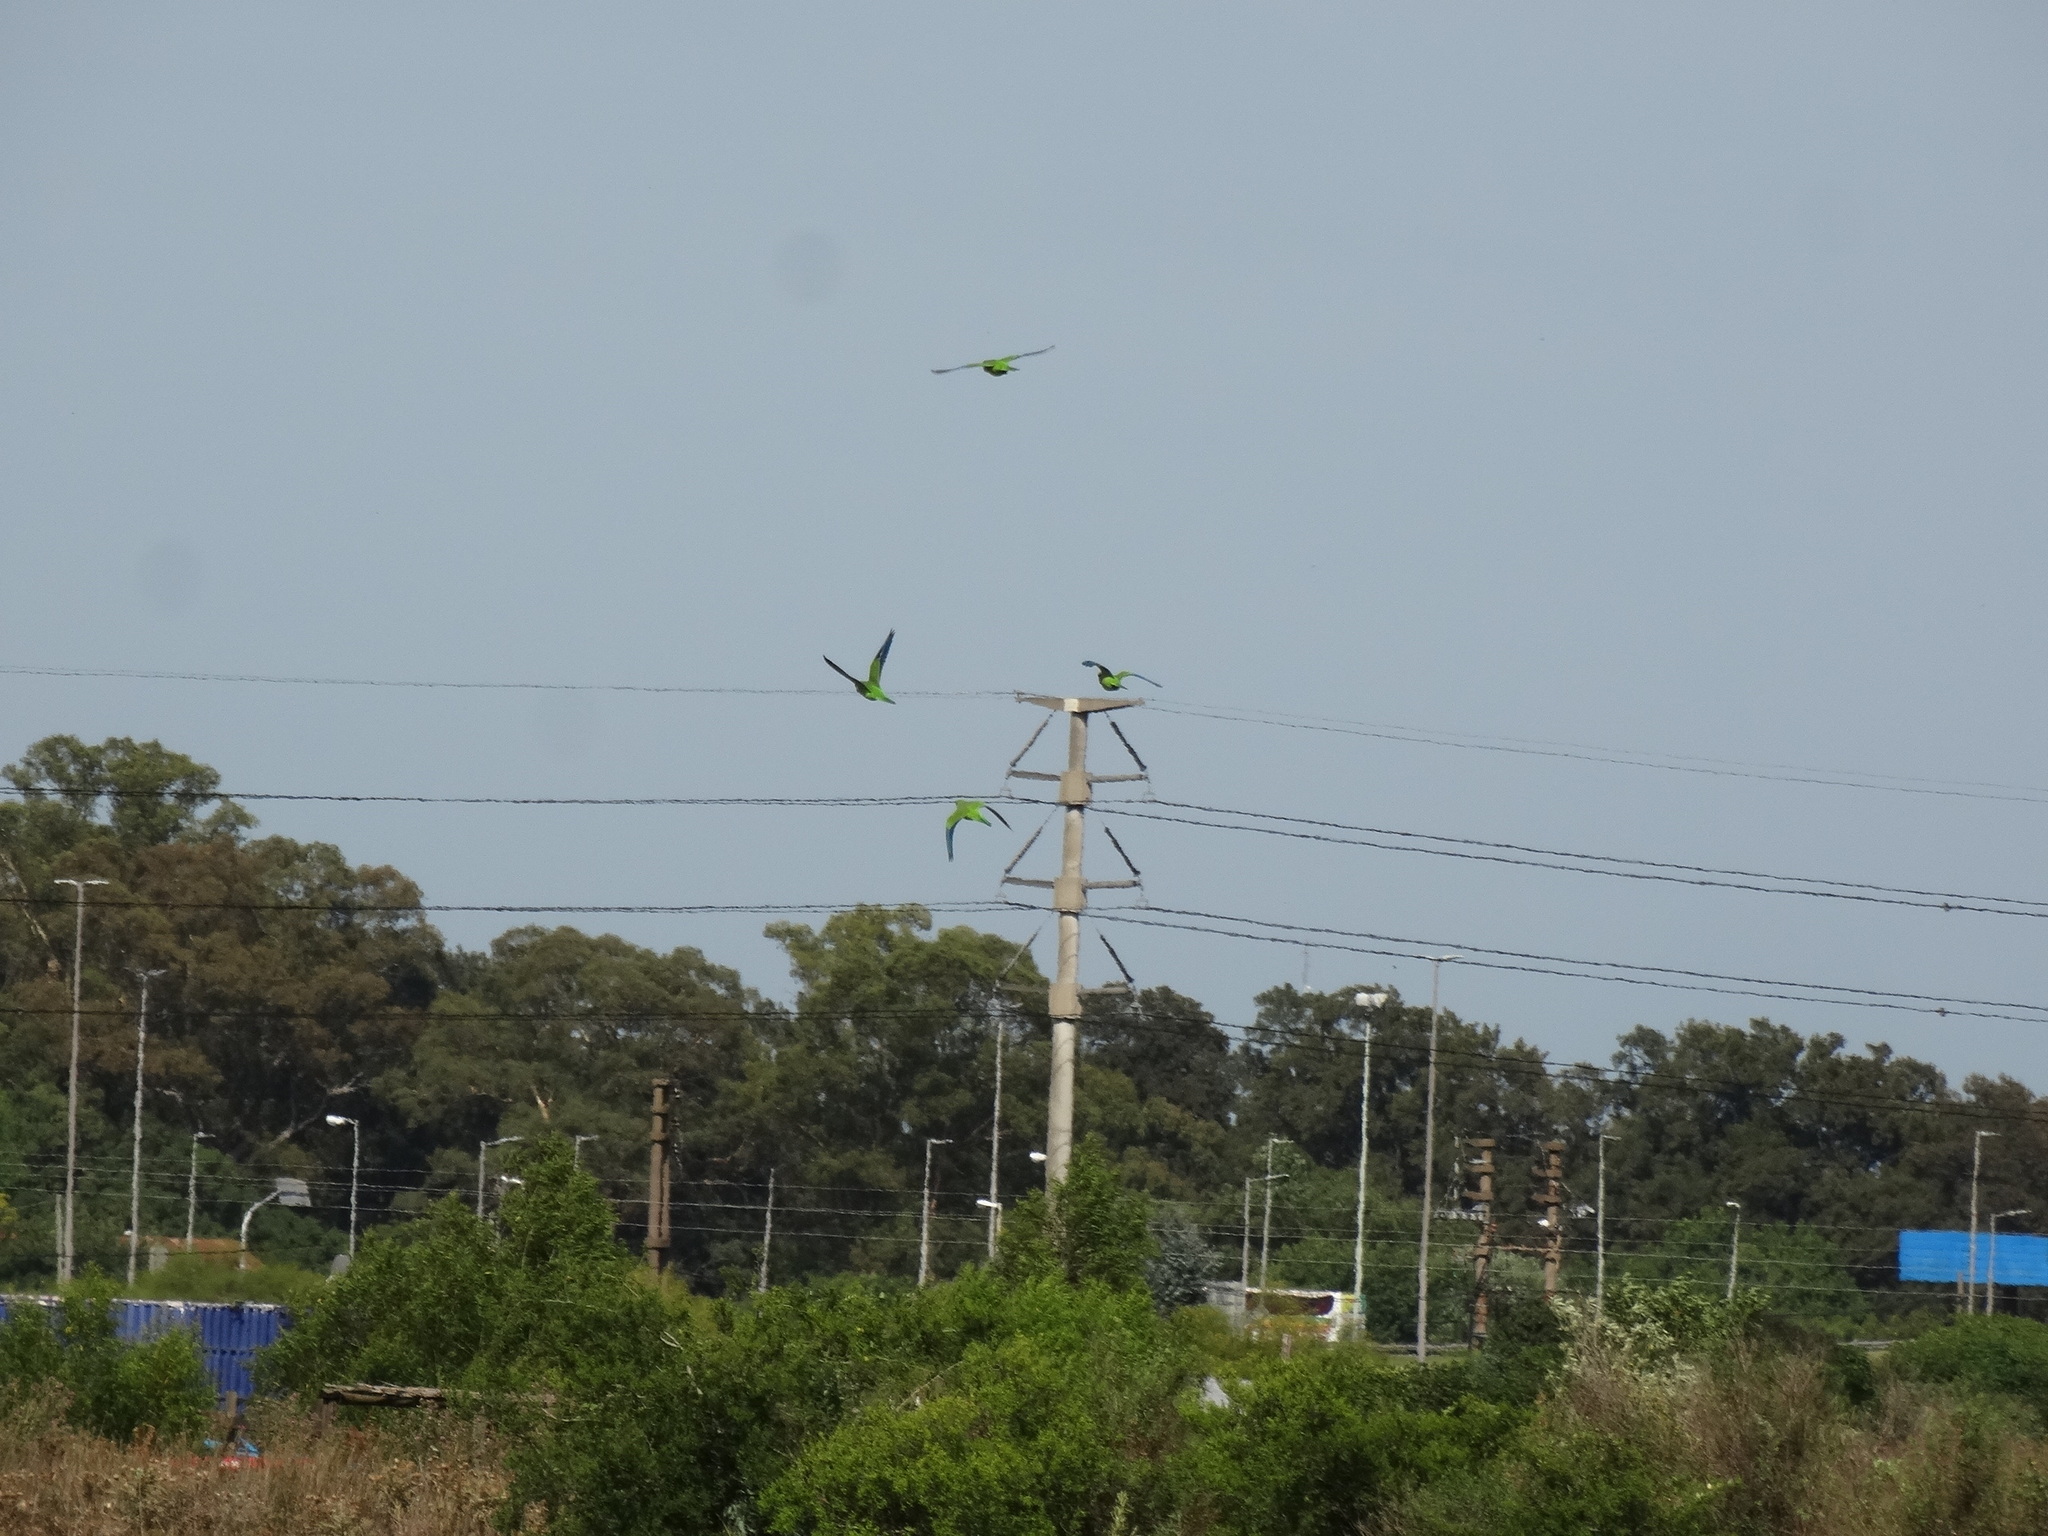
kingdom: Animalia
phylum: Chordata
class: Aves
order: Psittaciformes
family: Psittacidae
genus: Myiopsitta
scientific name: Myiopsitta monachus
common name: Monk parakeet
